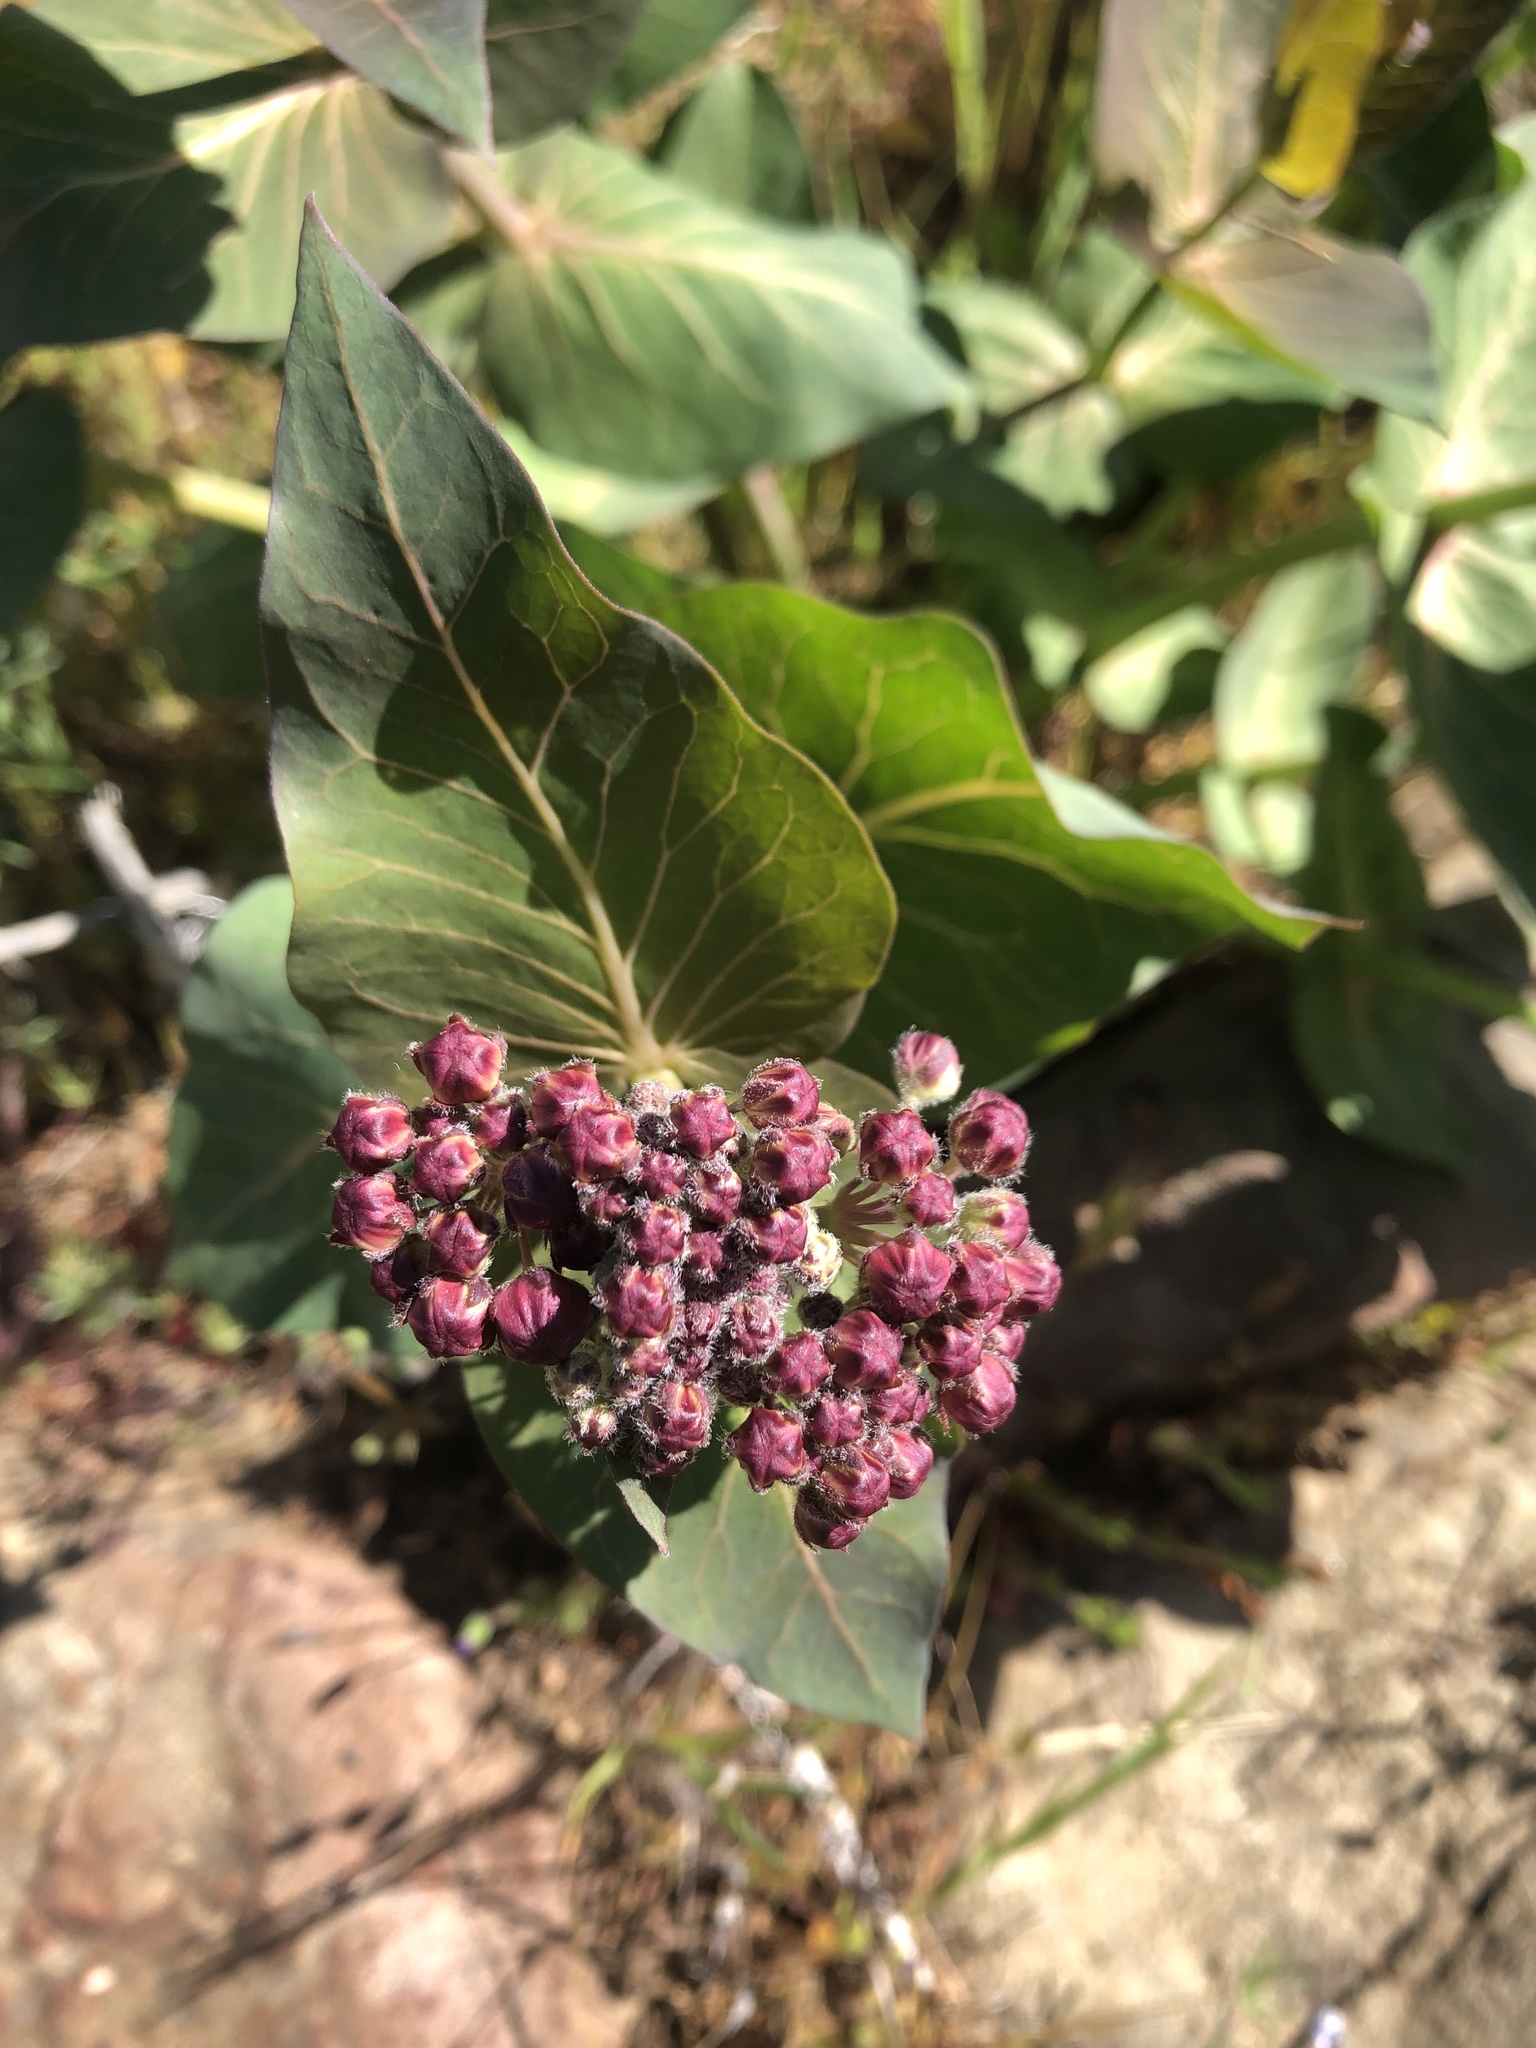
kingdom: Plantae
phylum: Tracheophyta
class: Magnoliopsida
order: Gentianales
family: Apocynaceae
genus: Asclepias
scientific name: Asclepias cordifolia
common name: Purple milkweed
